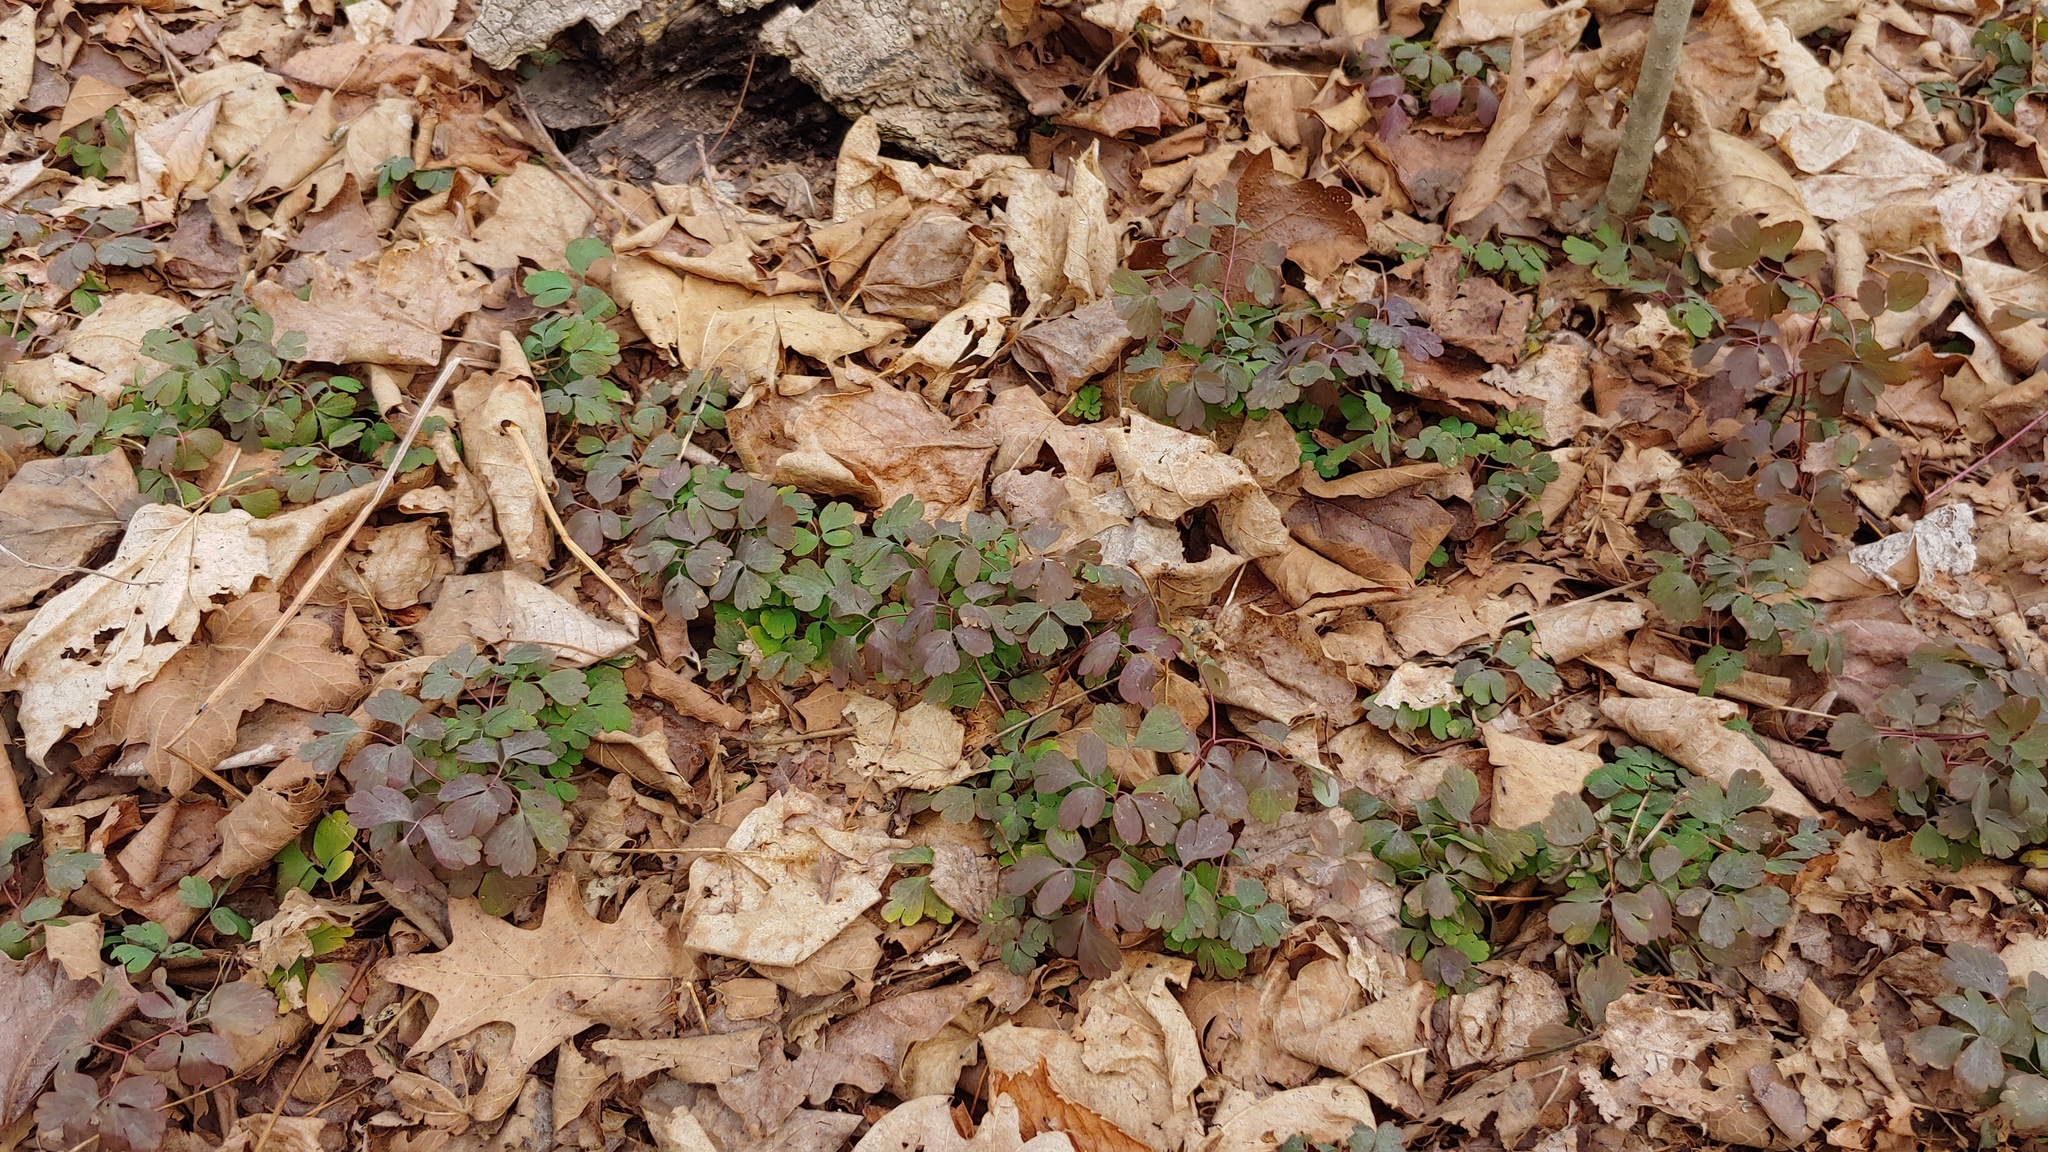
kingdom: Plantae
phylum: Tracheophyta
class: Magnoliopsida
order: Ranunculales
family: Ranunculaceae
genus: Enemion
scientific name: Enemion biternatum
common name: Eastern false rue-anemone
